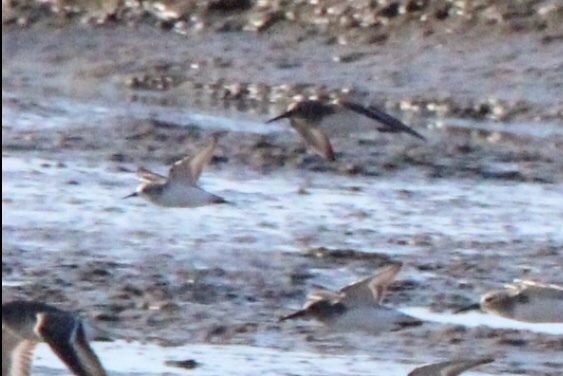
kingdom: Animalia
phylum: Chordata
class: Aves
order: Charadriiformes
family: Scolopacidae
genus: Calidris
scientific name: Calidris alba
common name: Sanderling
